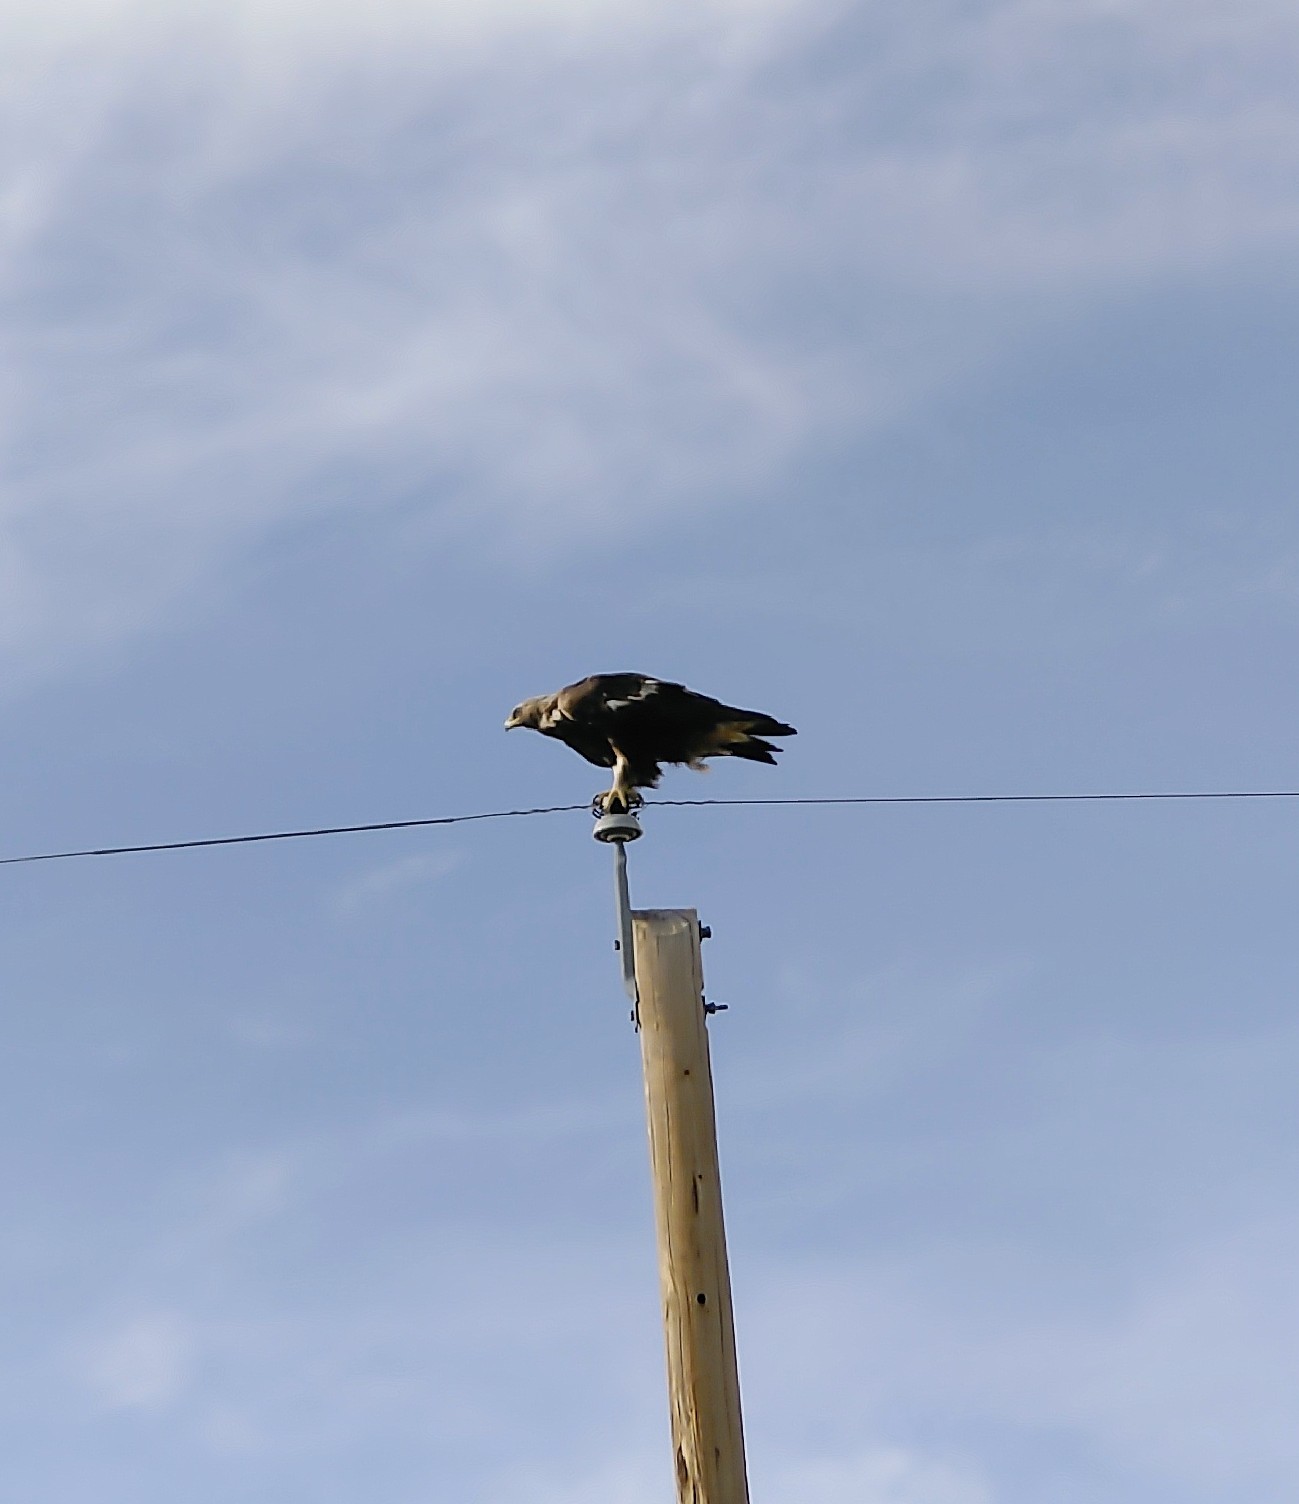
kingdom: Animalia
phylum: Chordata
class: Aves
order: Accipitriformes
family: Accipitridae
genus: Aquila
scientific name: Aquila chrysaetos
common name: Golden eagle
